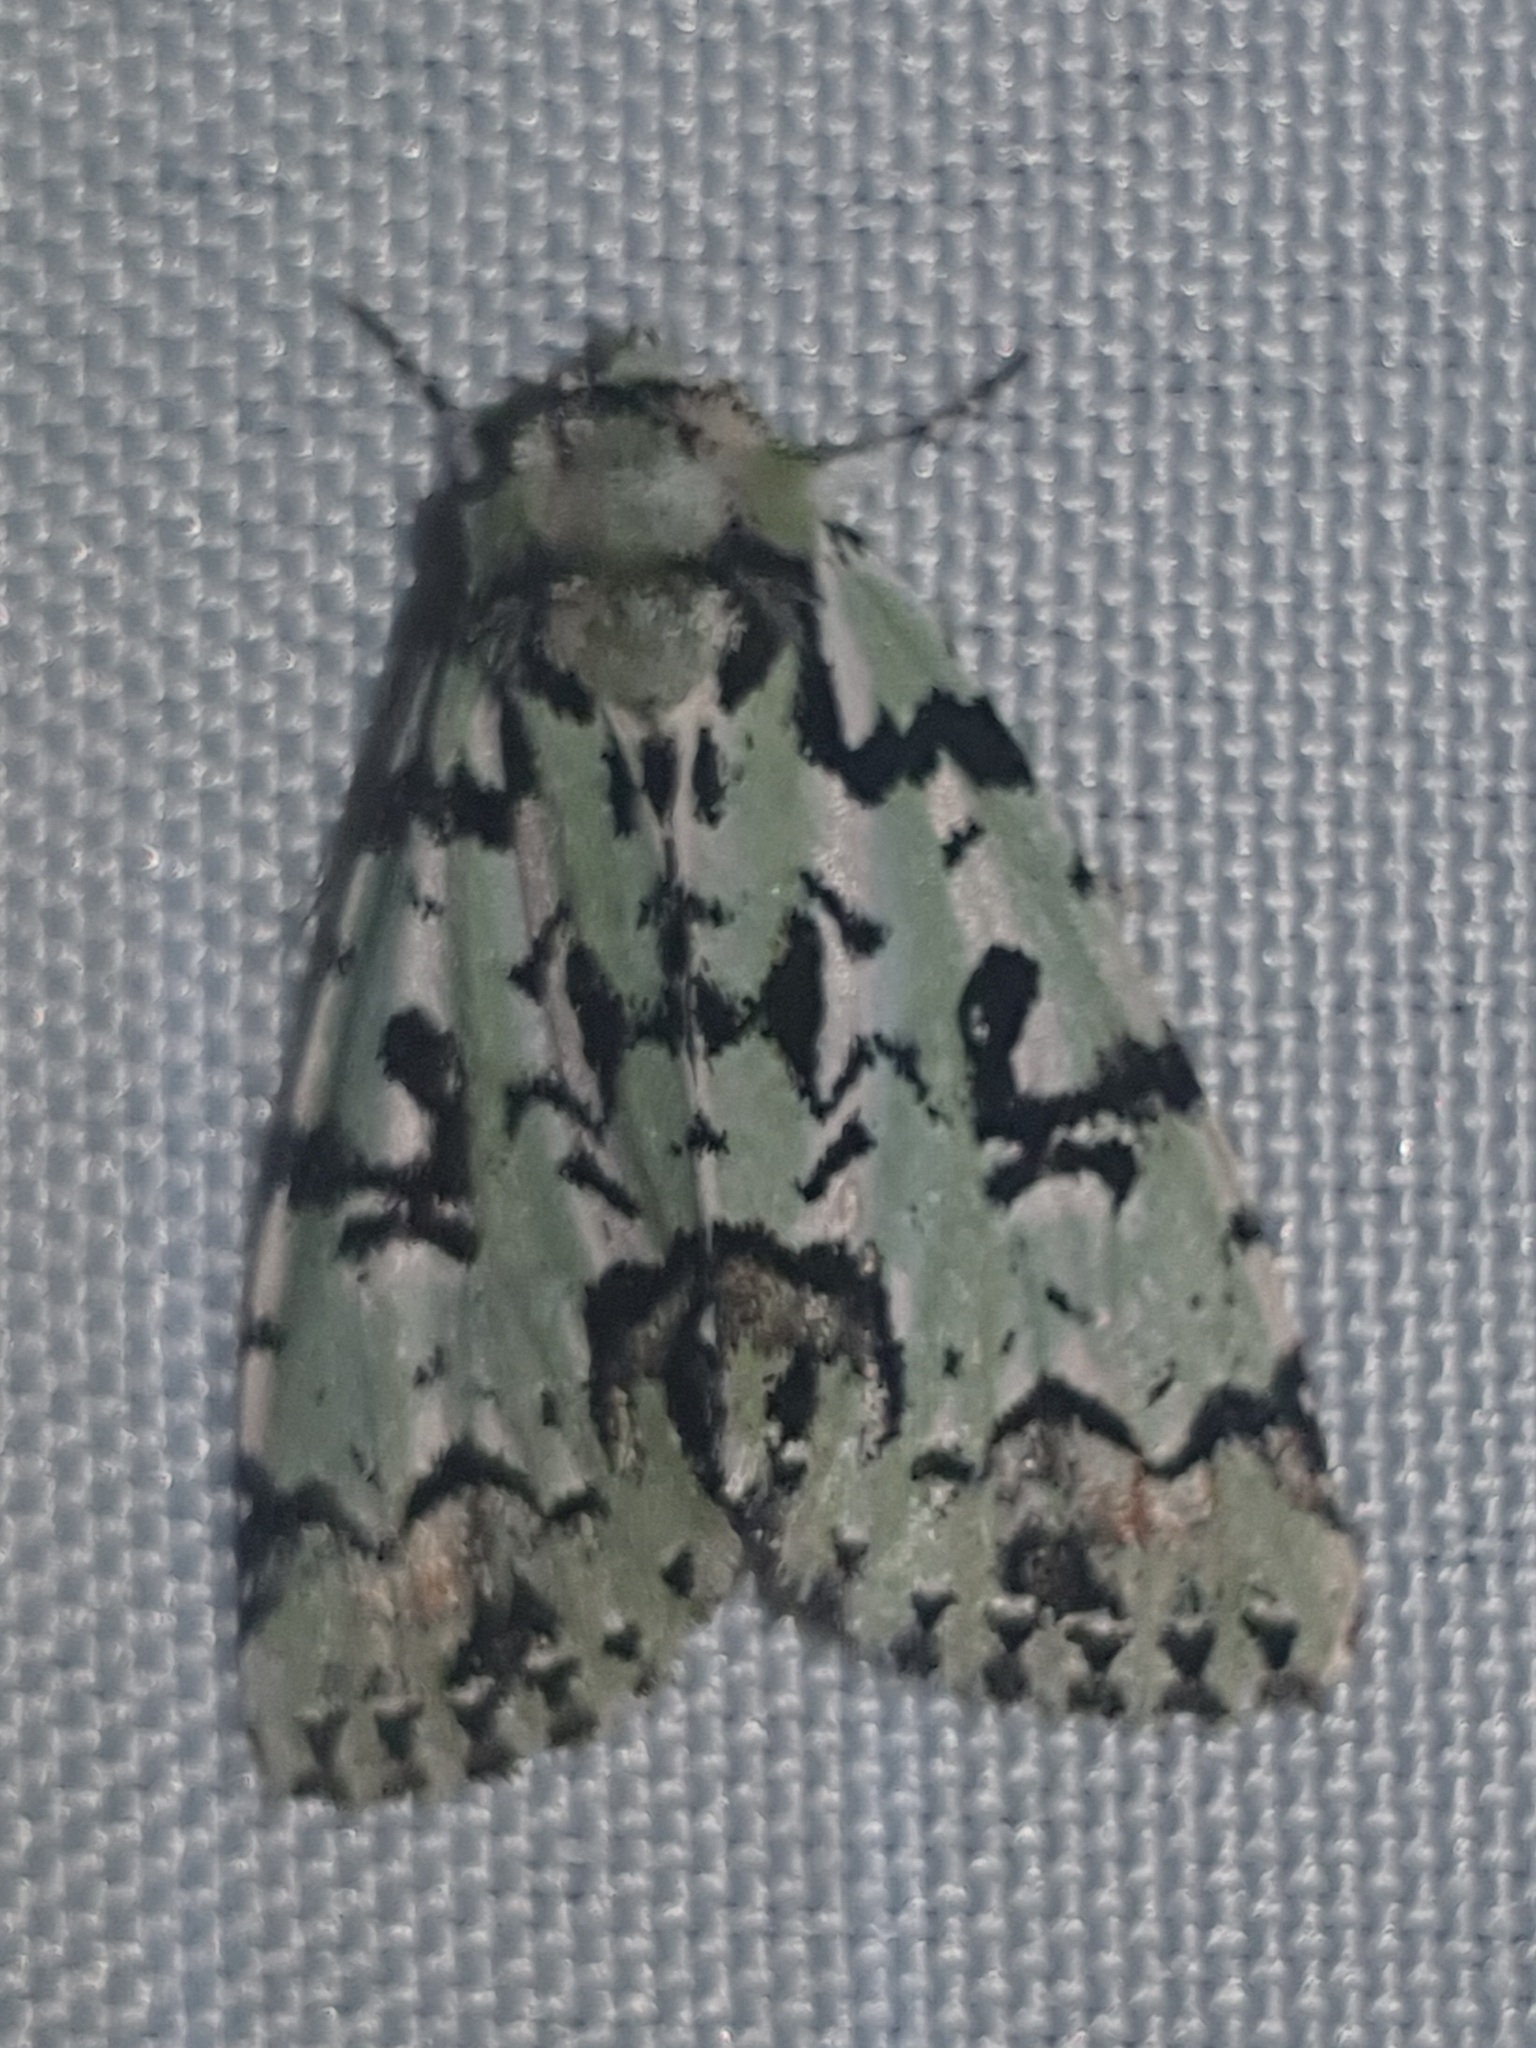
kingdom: Animalia
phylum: Arthropoda
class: Insecta
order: Lepidoptera
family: Noctuidae
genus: Moma
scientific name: Moma alpium
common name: Scarce merveille du jour
